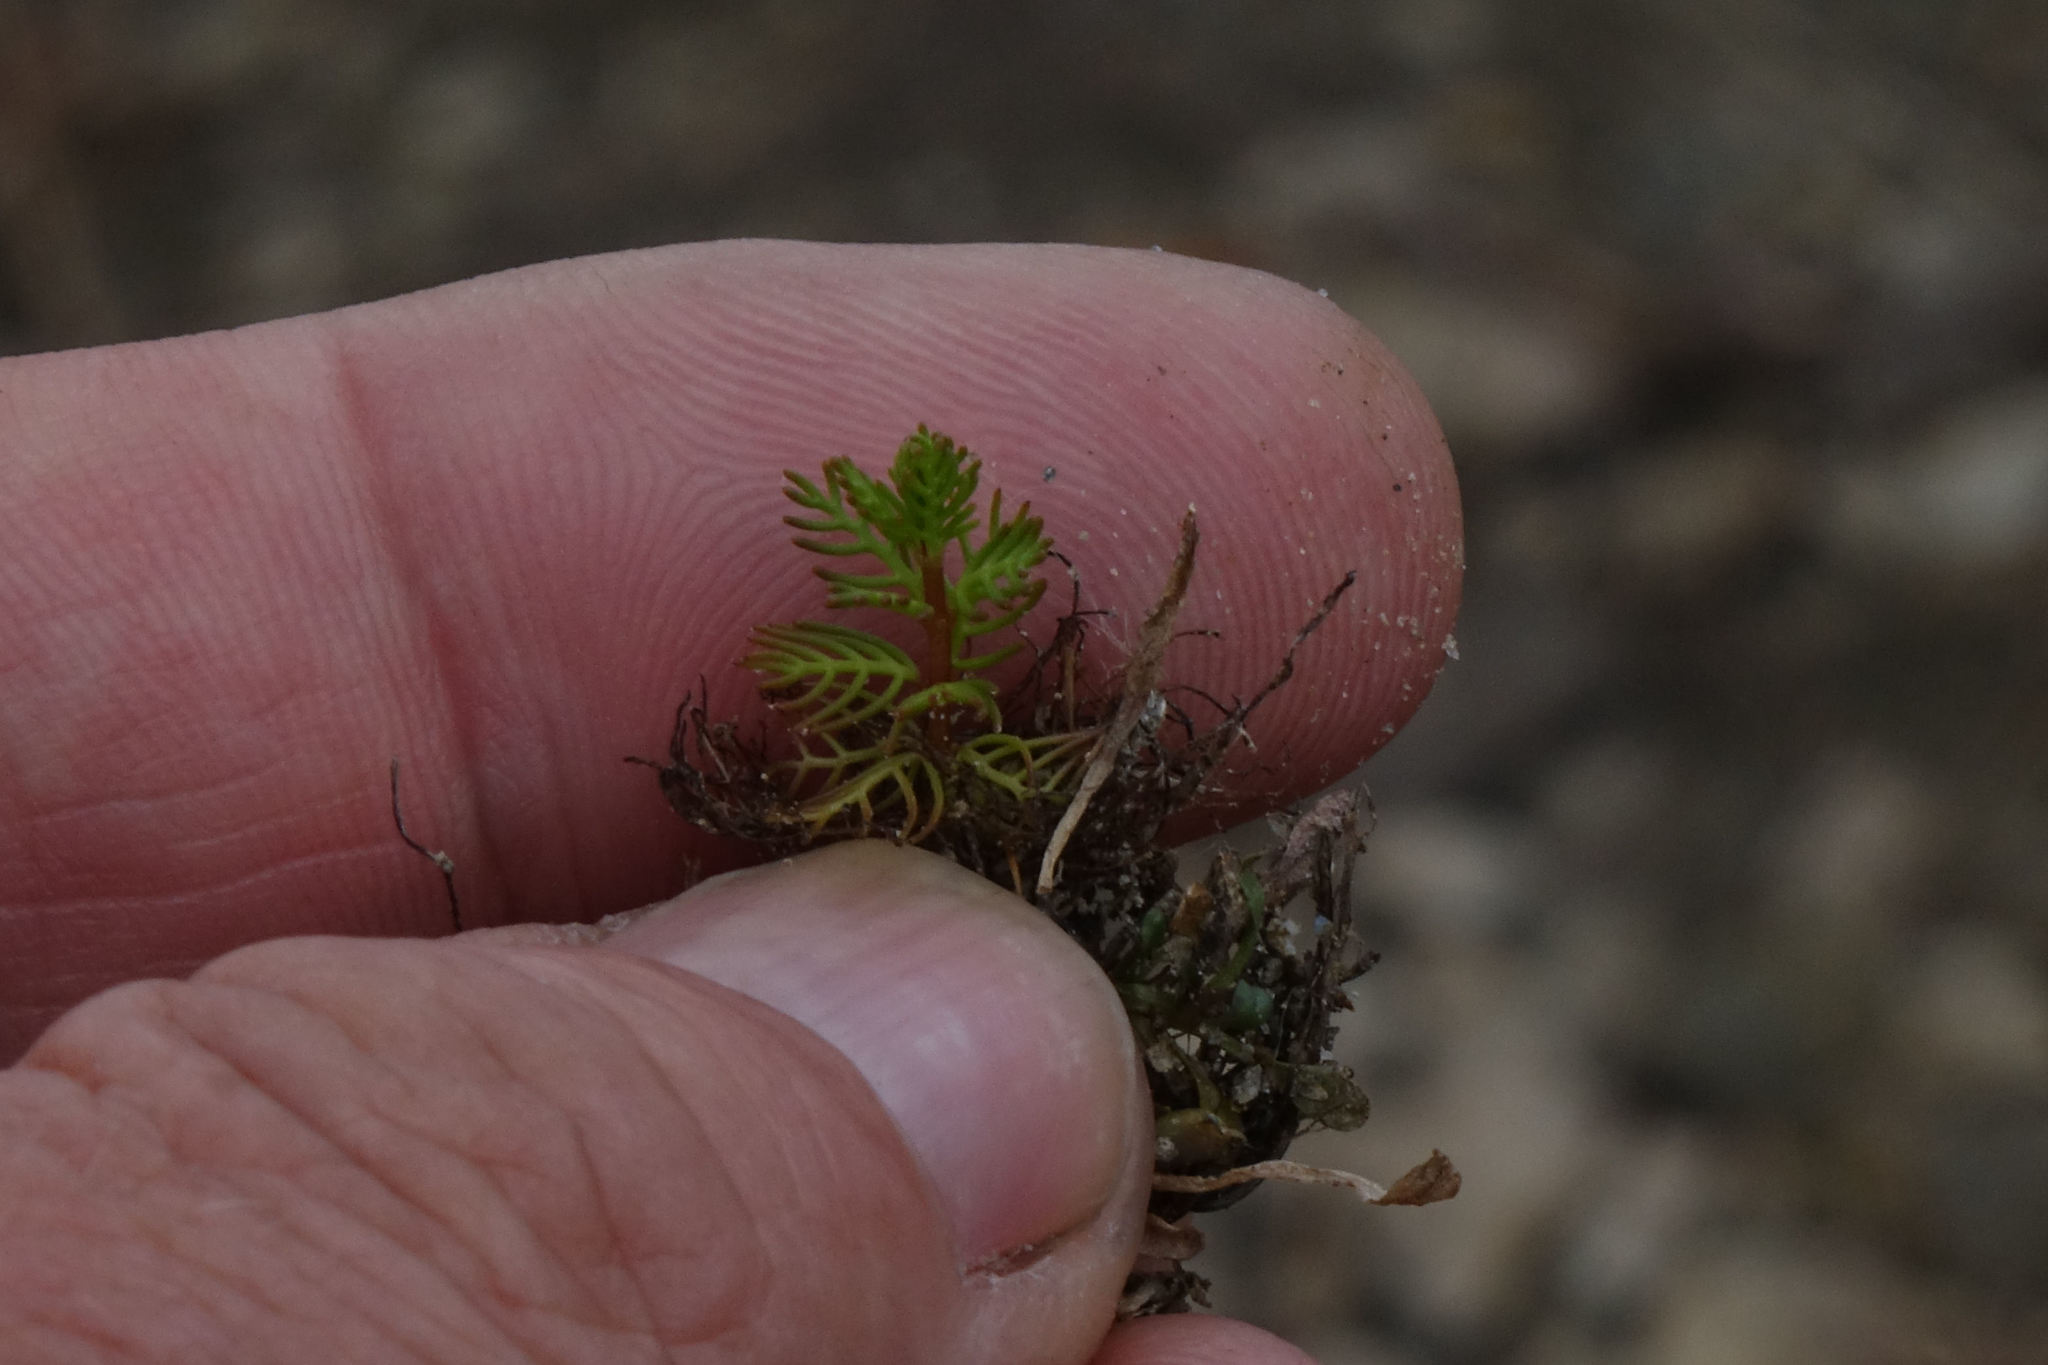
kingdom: Plantae
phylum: Tracheophyta
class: Magnoliopsida
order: Saxifragales
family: Haloragaceae
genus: Myriophyllum
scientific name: Myriophyllum triphyllum
